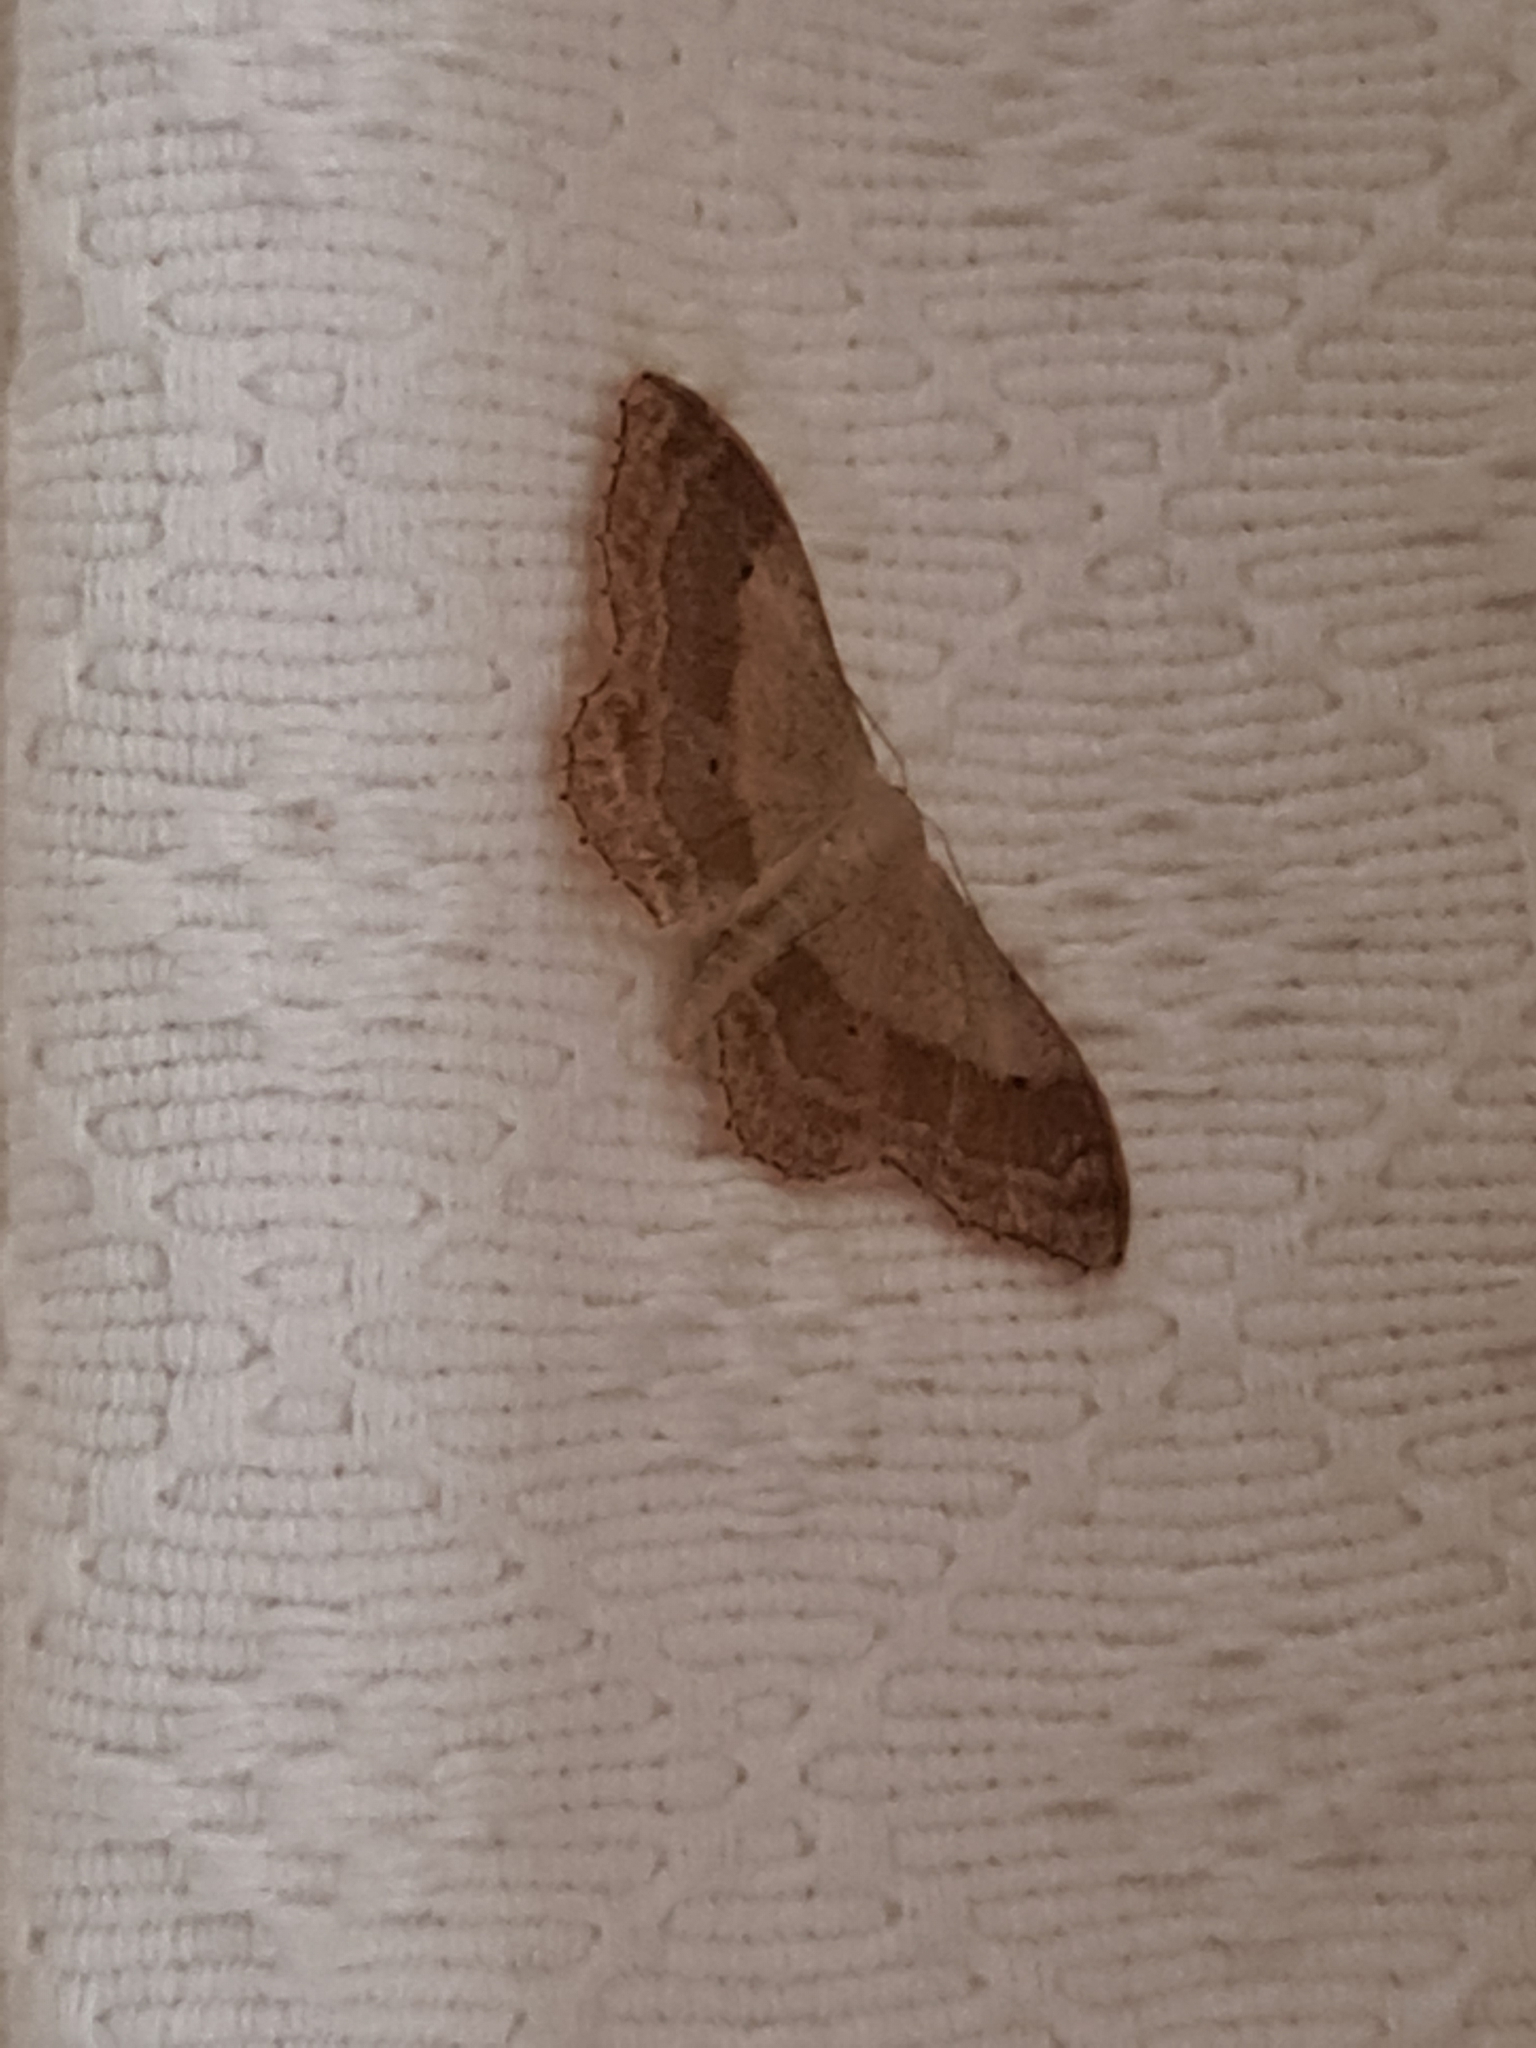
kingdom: Animalia
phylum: Arthropoda
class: Insecta
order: Lepidoptera
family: Geometridae
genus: Idaea
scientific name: Idaea aversata
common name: Riband wave
